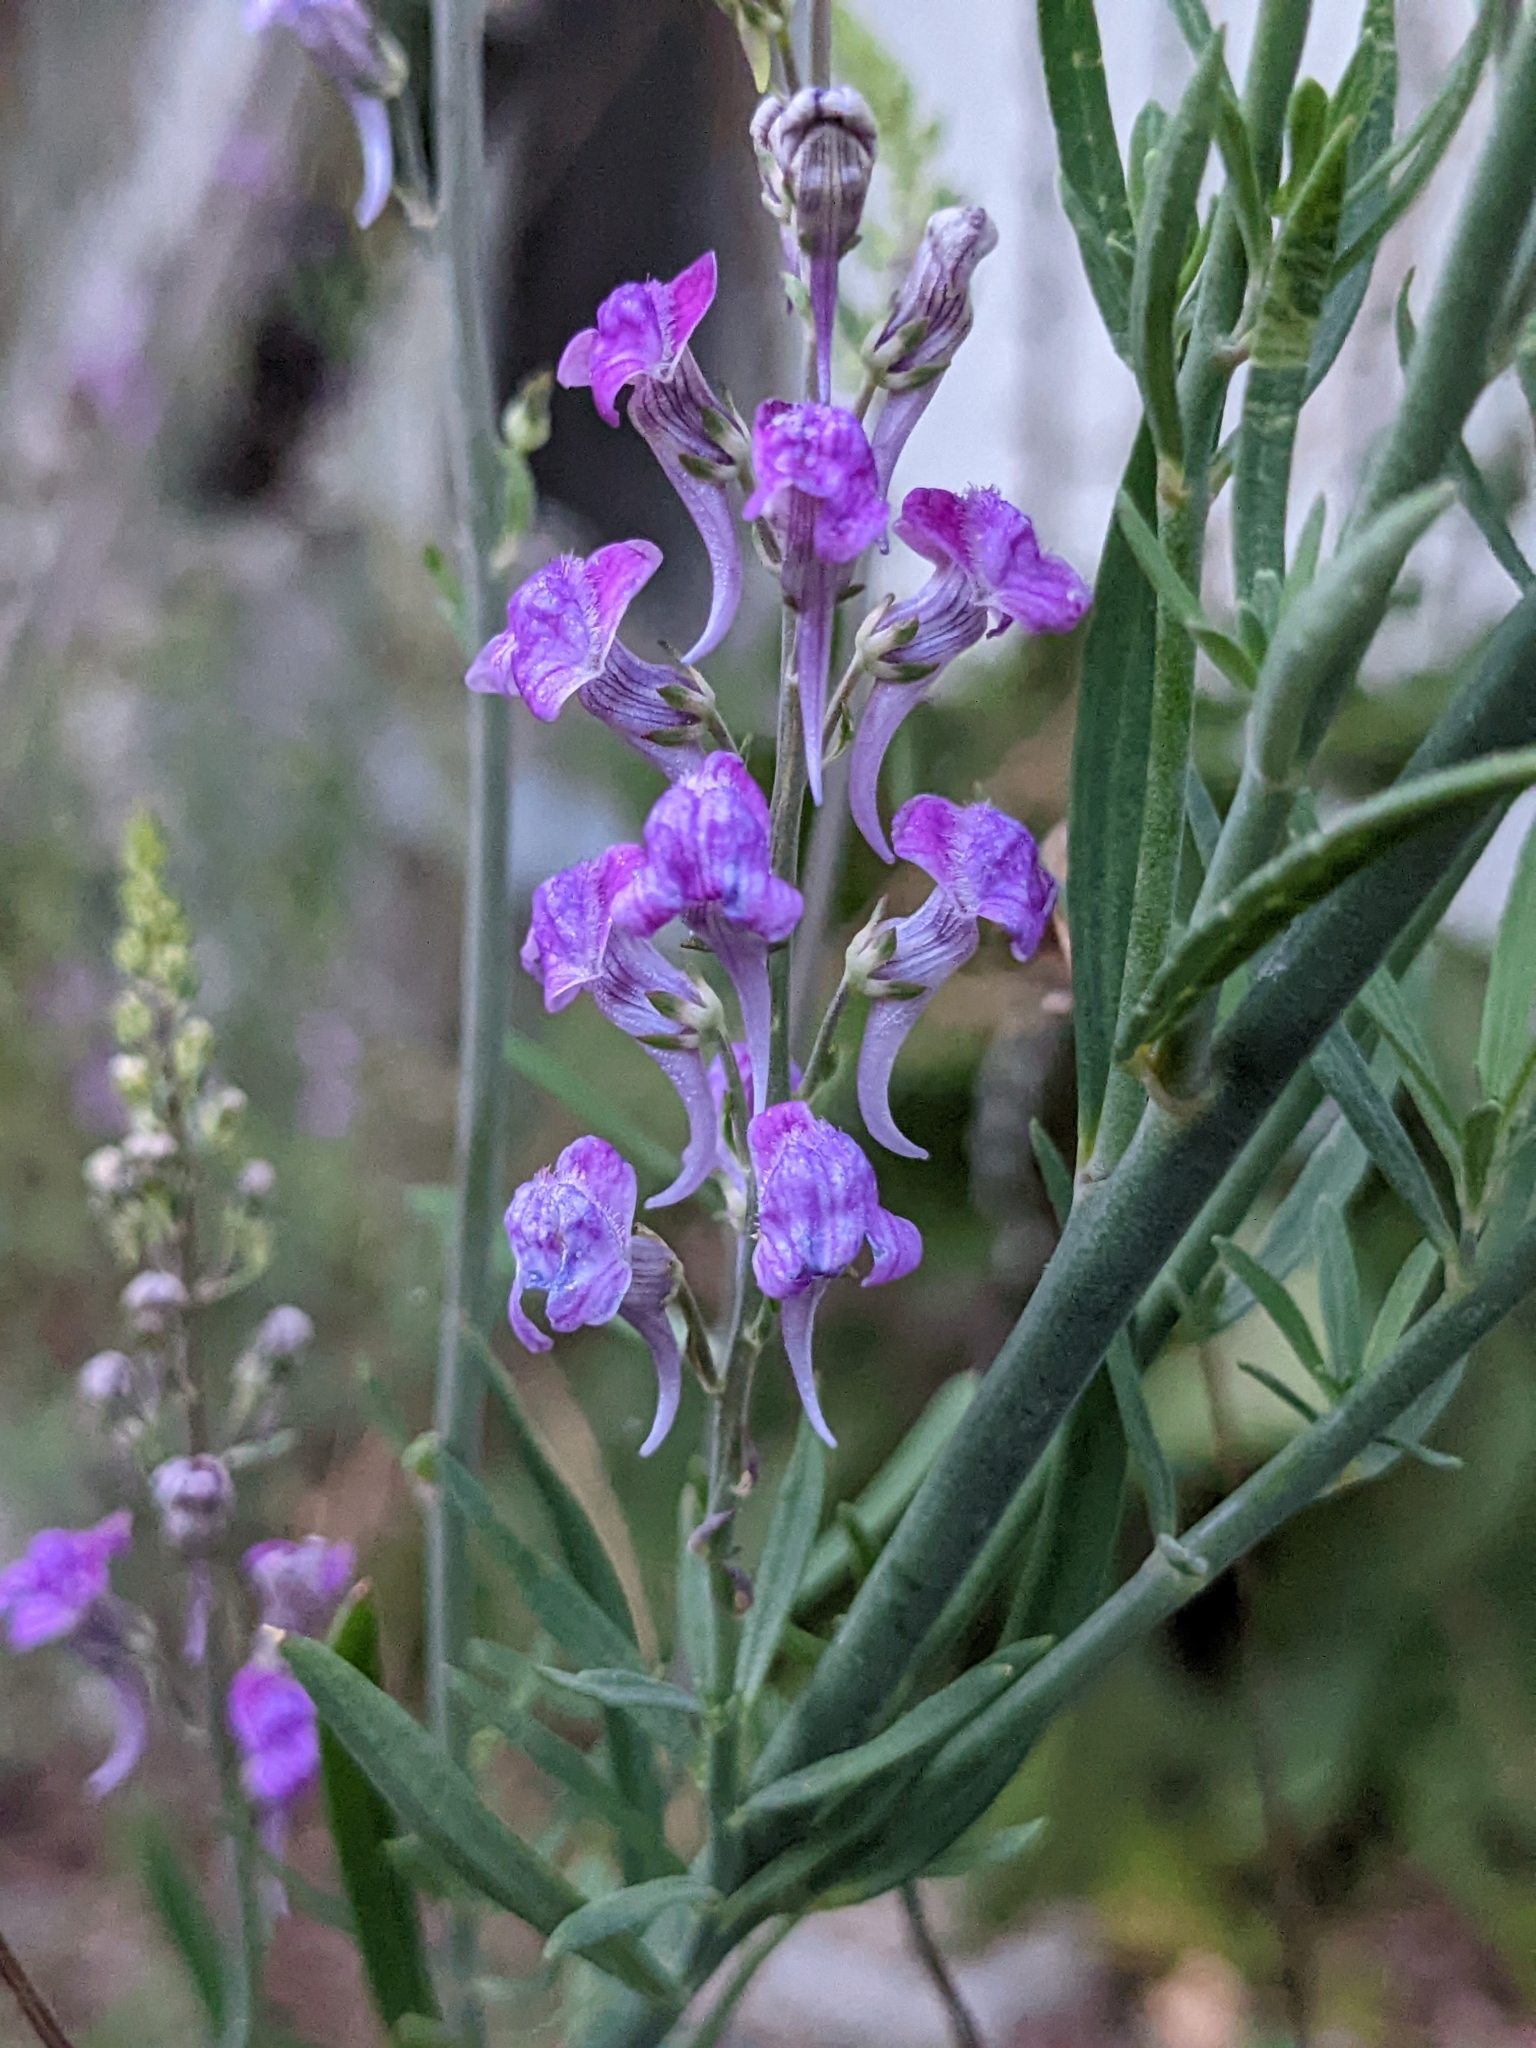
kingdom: Plantae
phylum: Tracheophyta
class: Magnoliopsida
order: Lamiales
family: Plantaginaceae
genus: Linaria
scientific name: Linaria purpurea
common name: Purple toadflax
